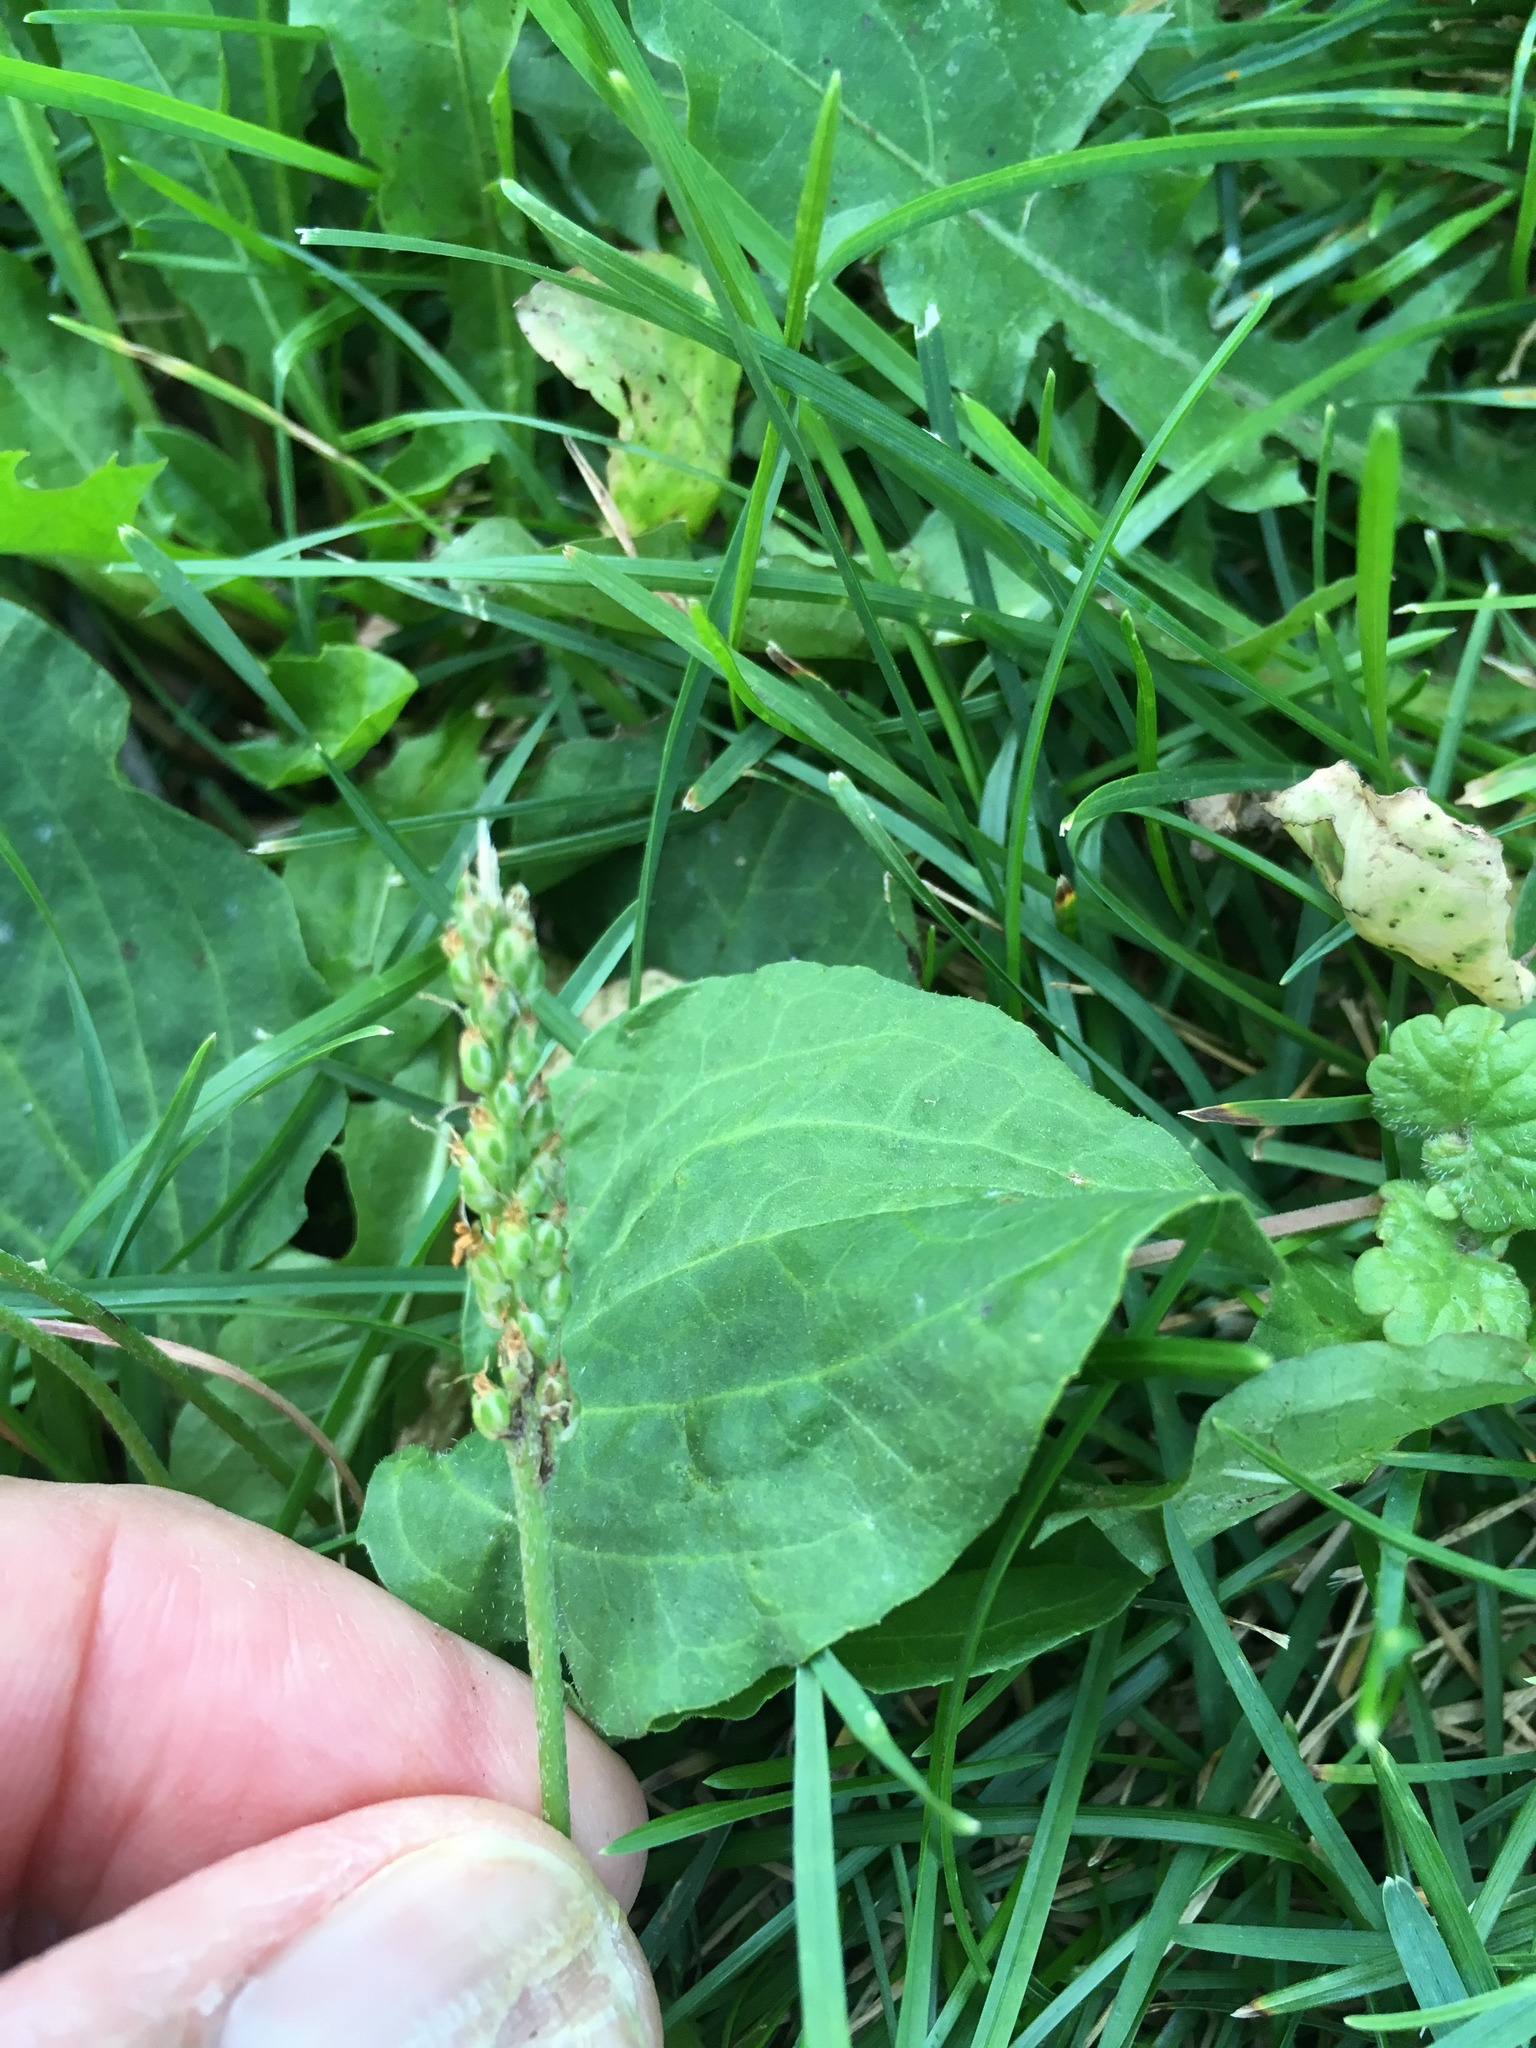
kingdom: Plantae
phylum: Tracheophyta
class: Magnoliopsida
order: Lamiales
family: Plantaginaceae
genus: Plantago
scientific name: Plantago major
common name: Common plantain
